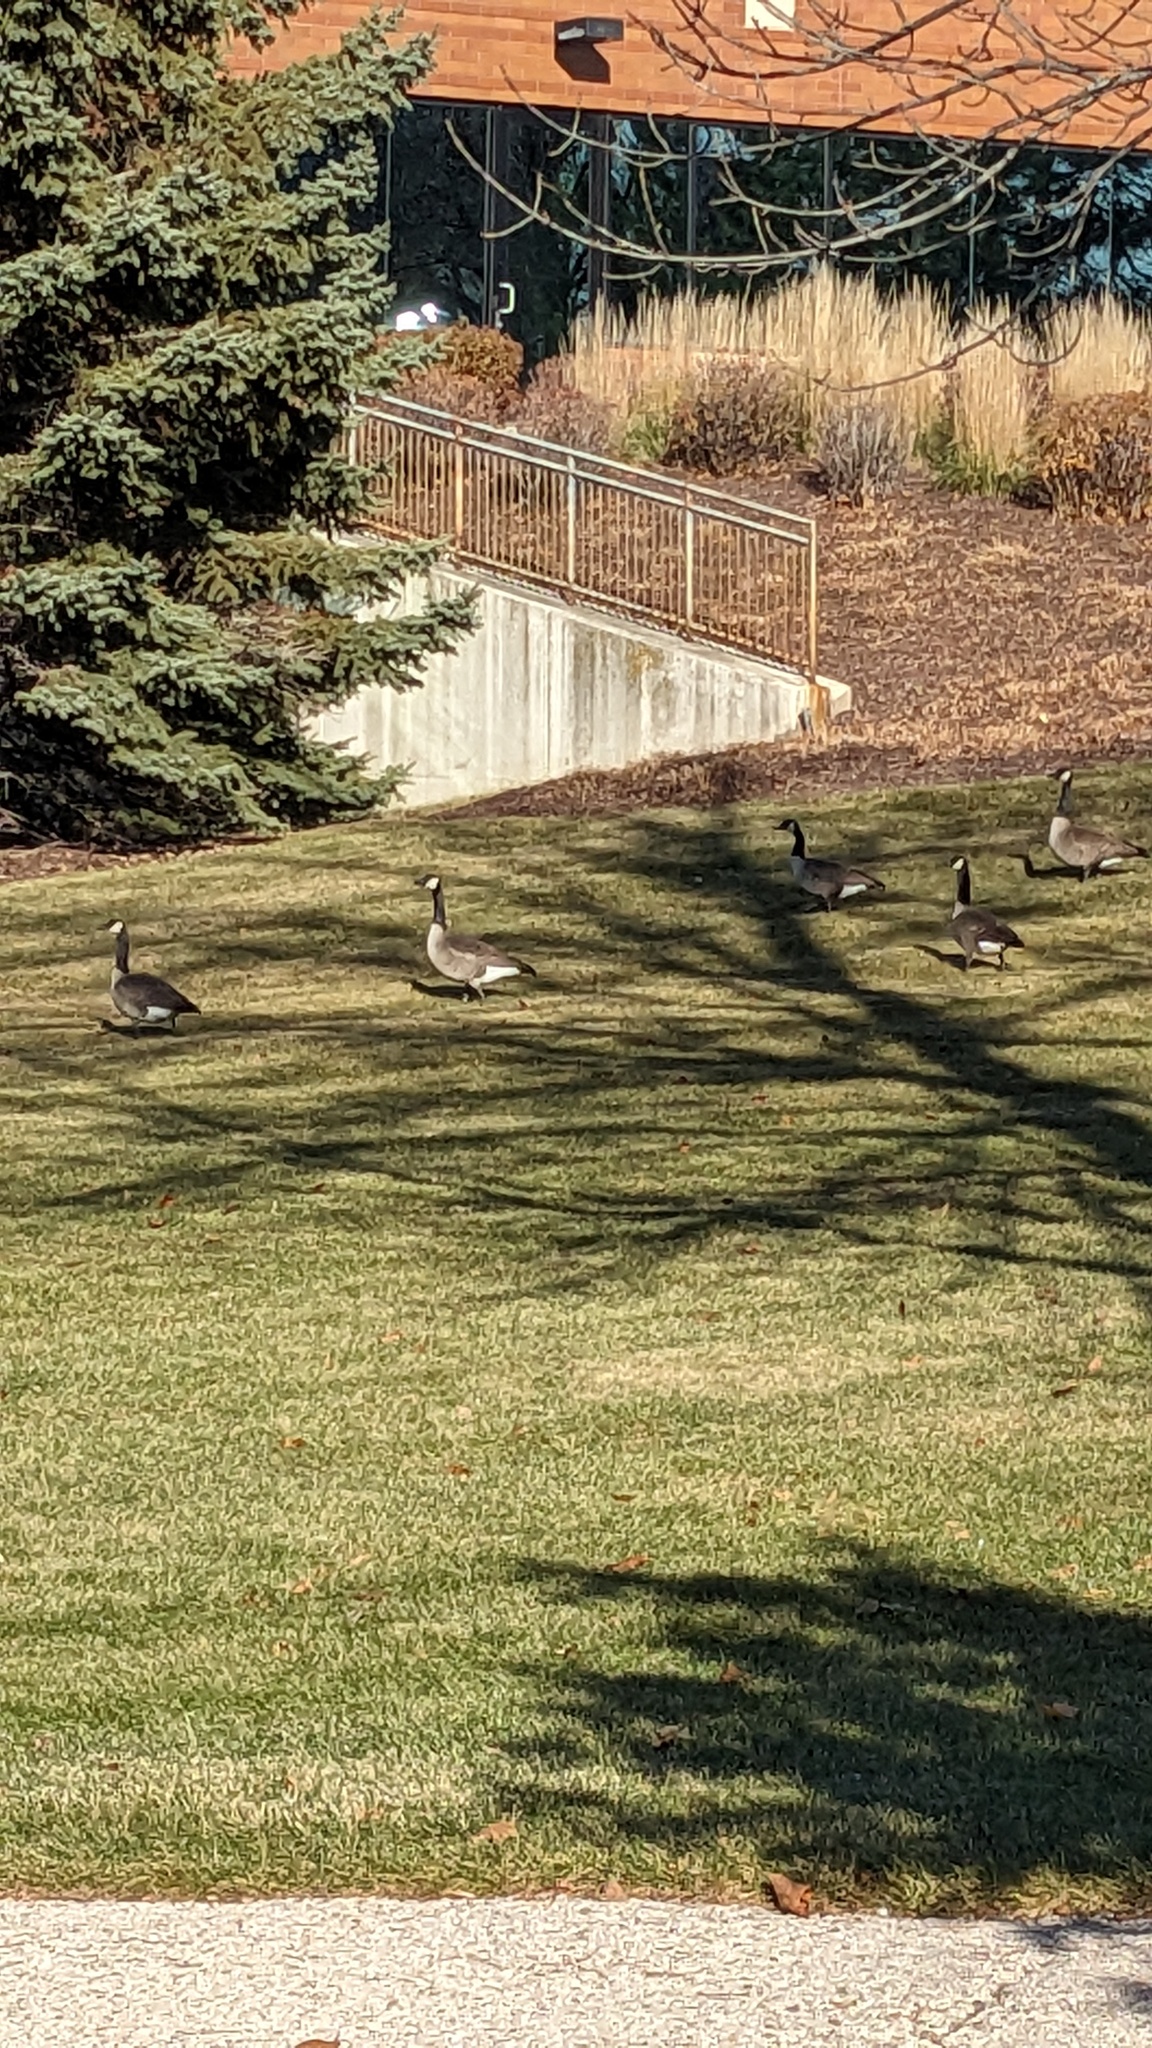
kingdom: Animalia
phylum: Chordata
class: Aves
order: Anseriformes
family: Anatidae
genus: Branta
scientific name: Branta canadensis
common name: Canada goose
